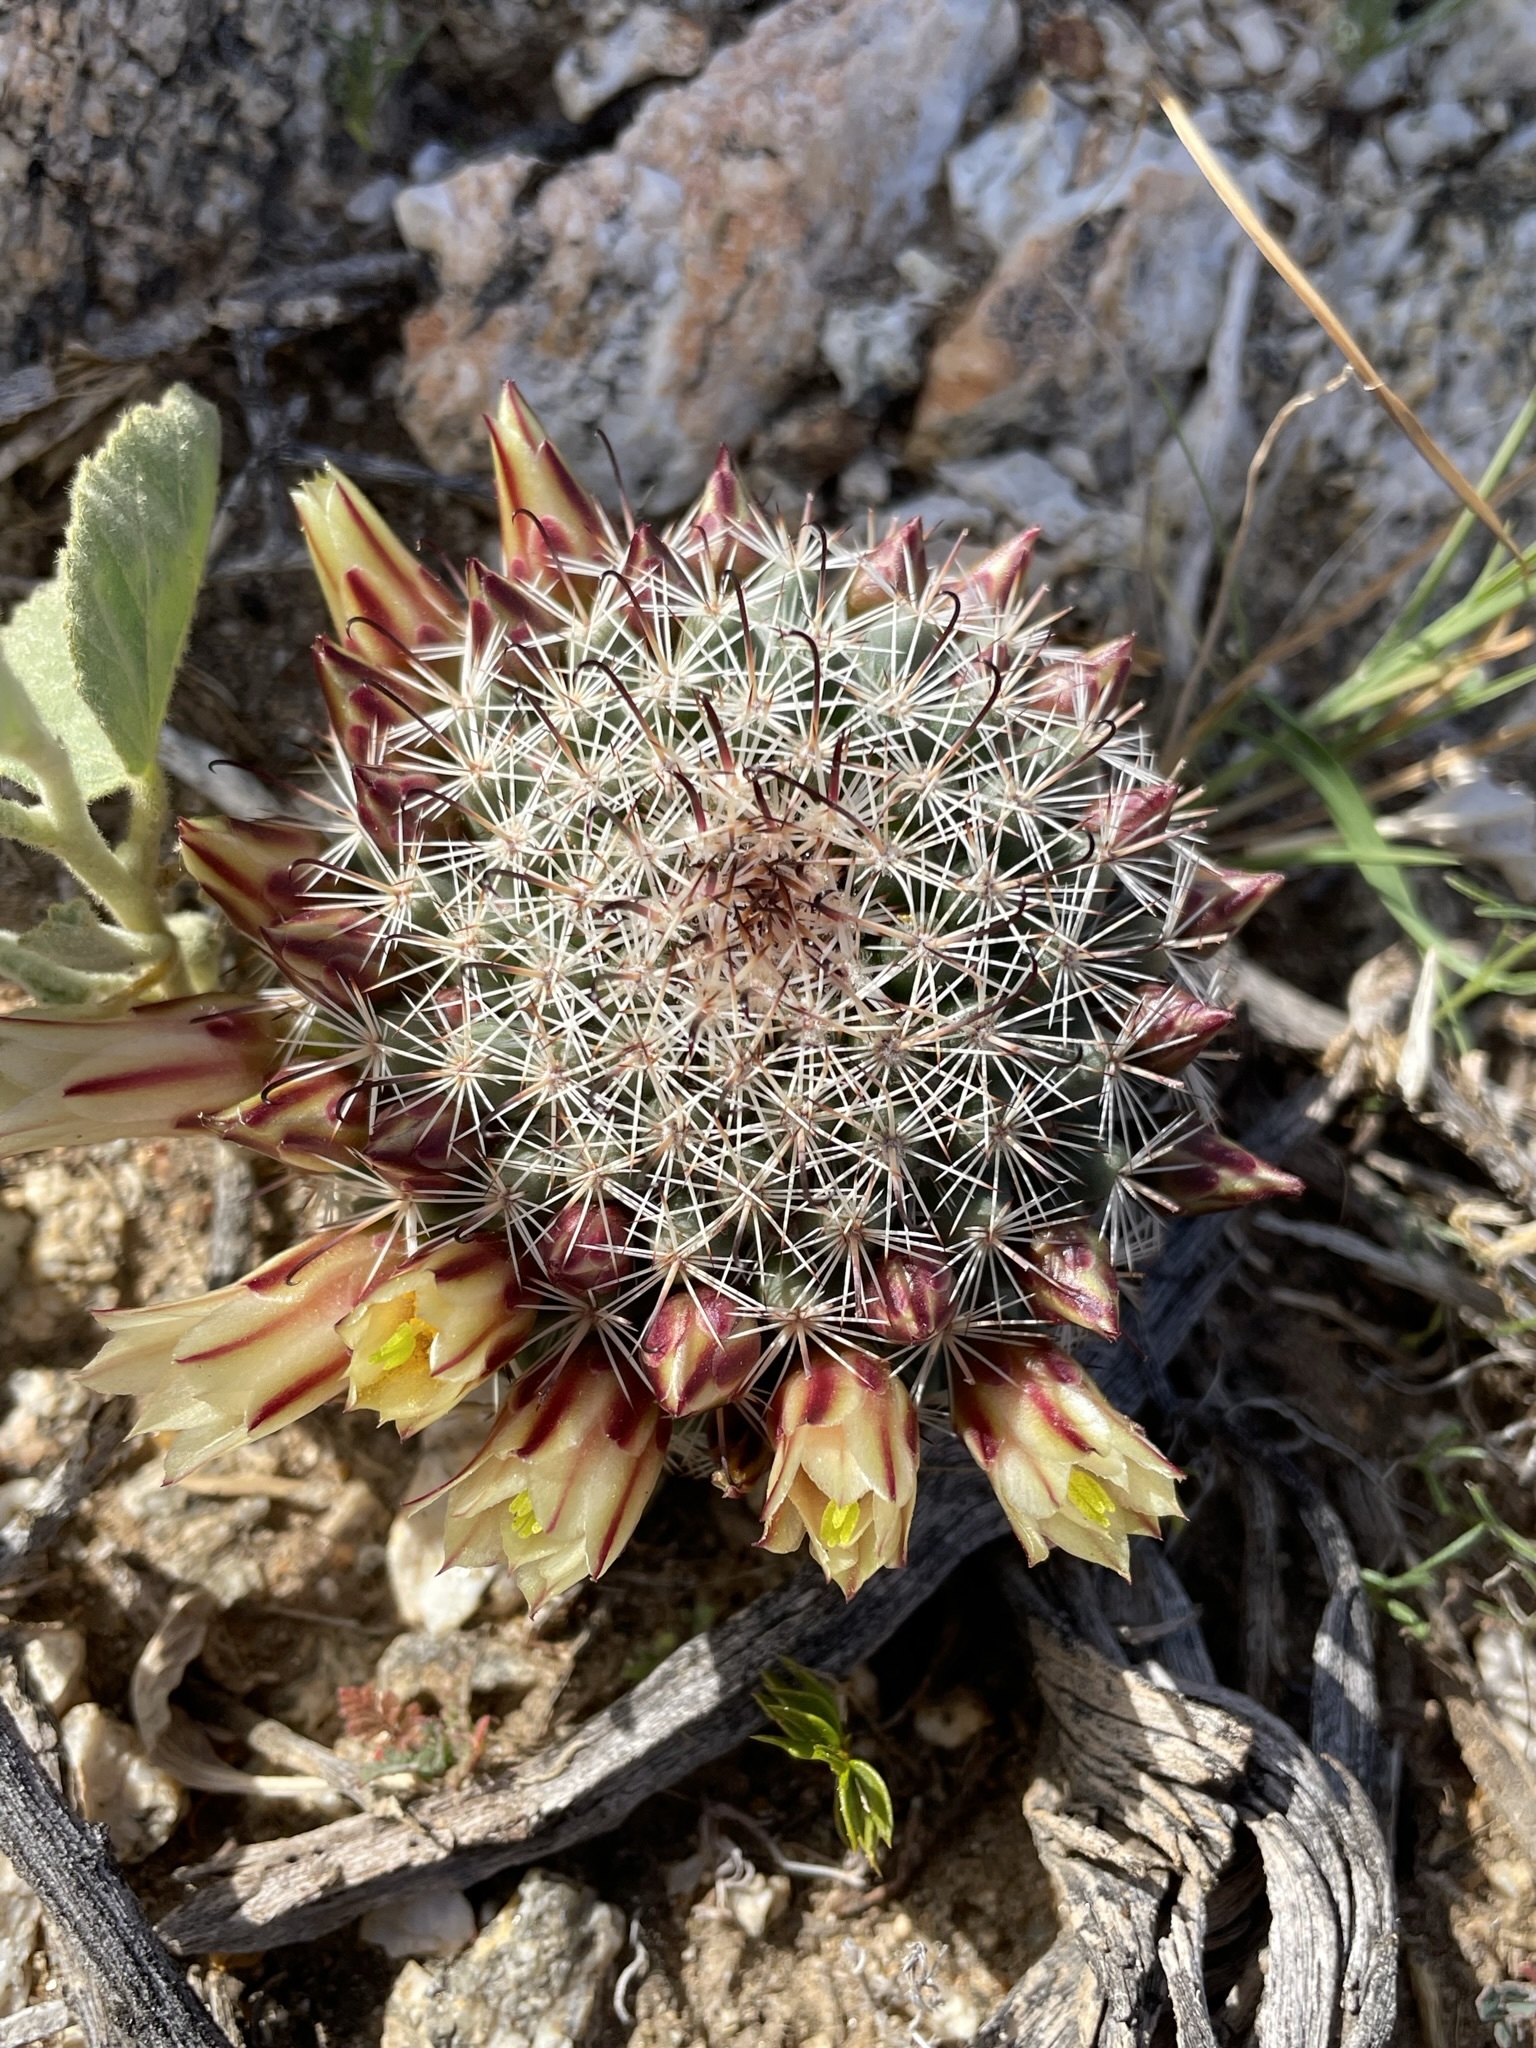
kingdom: Plantae
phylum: Tracheophyta
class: Magnoliopsida
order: Caryophyllales
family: Cactaceae
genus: Cochemiea
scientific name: Cochemiea dioica
